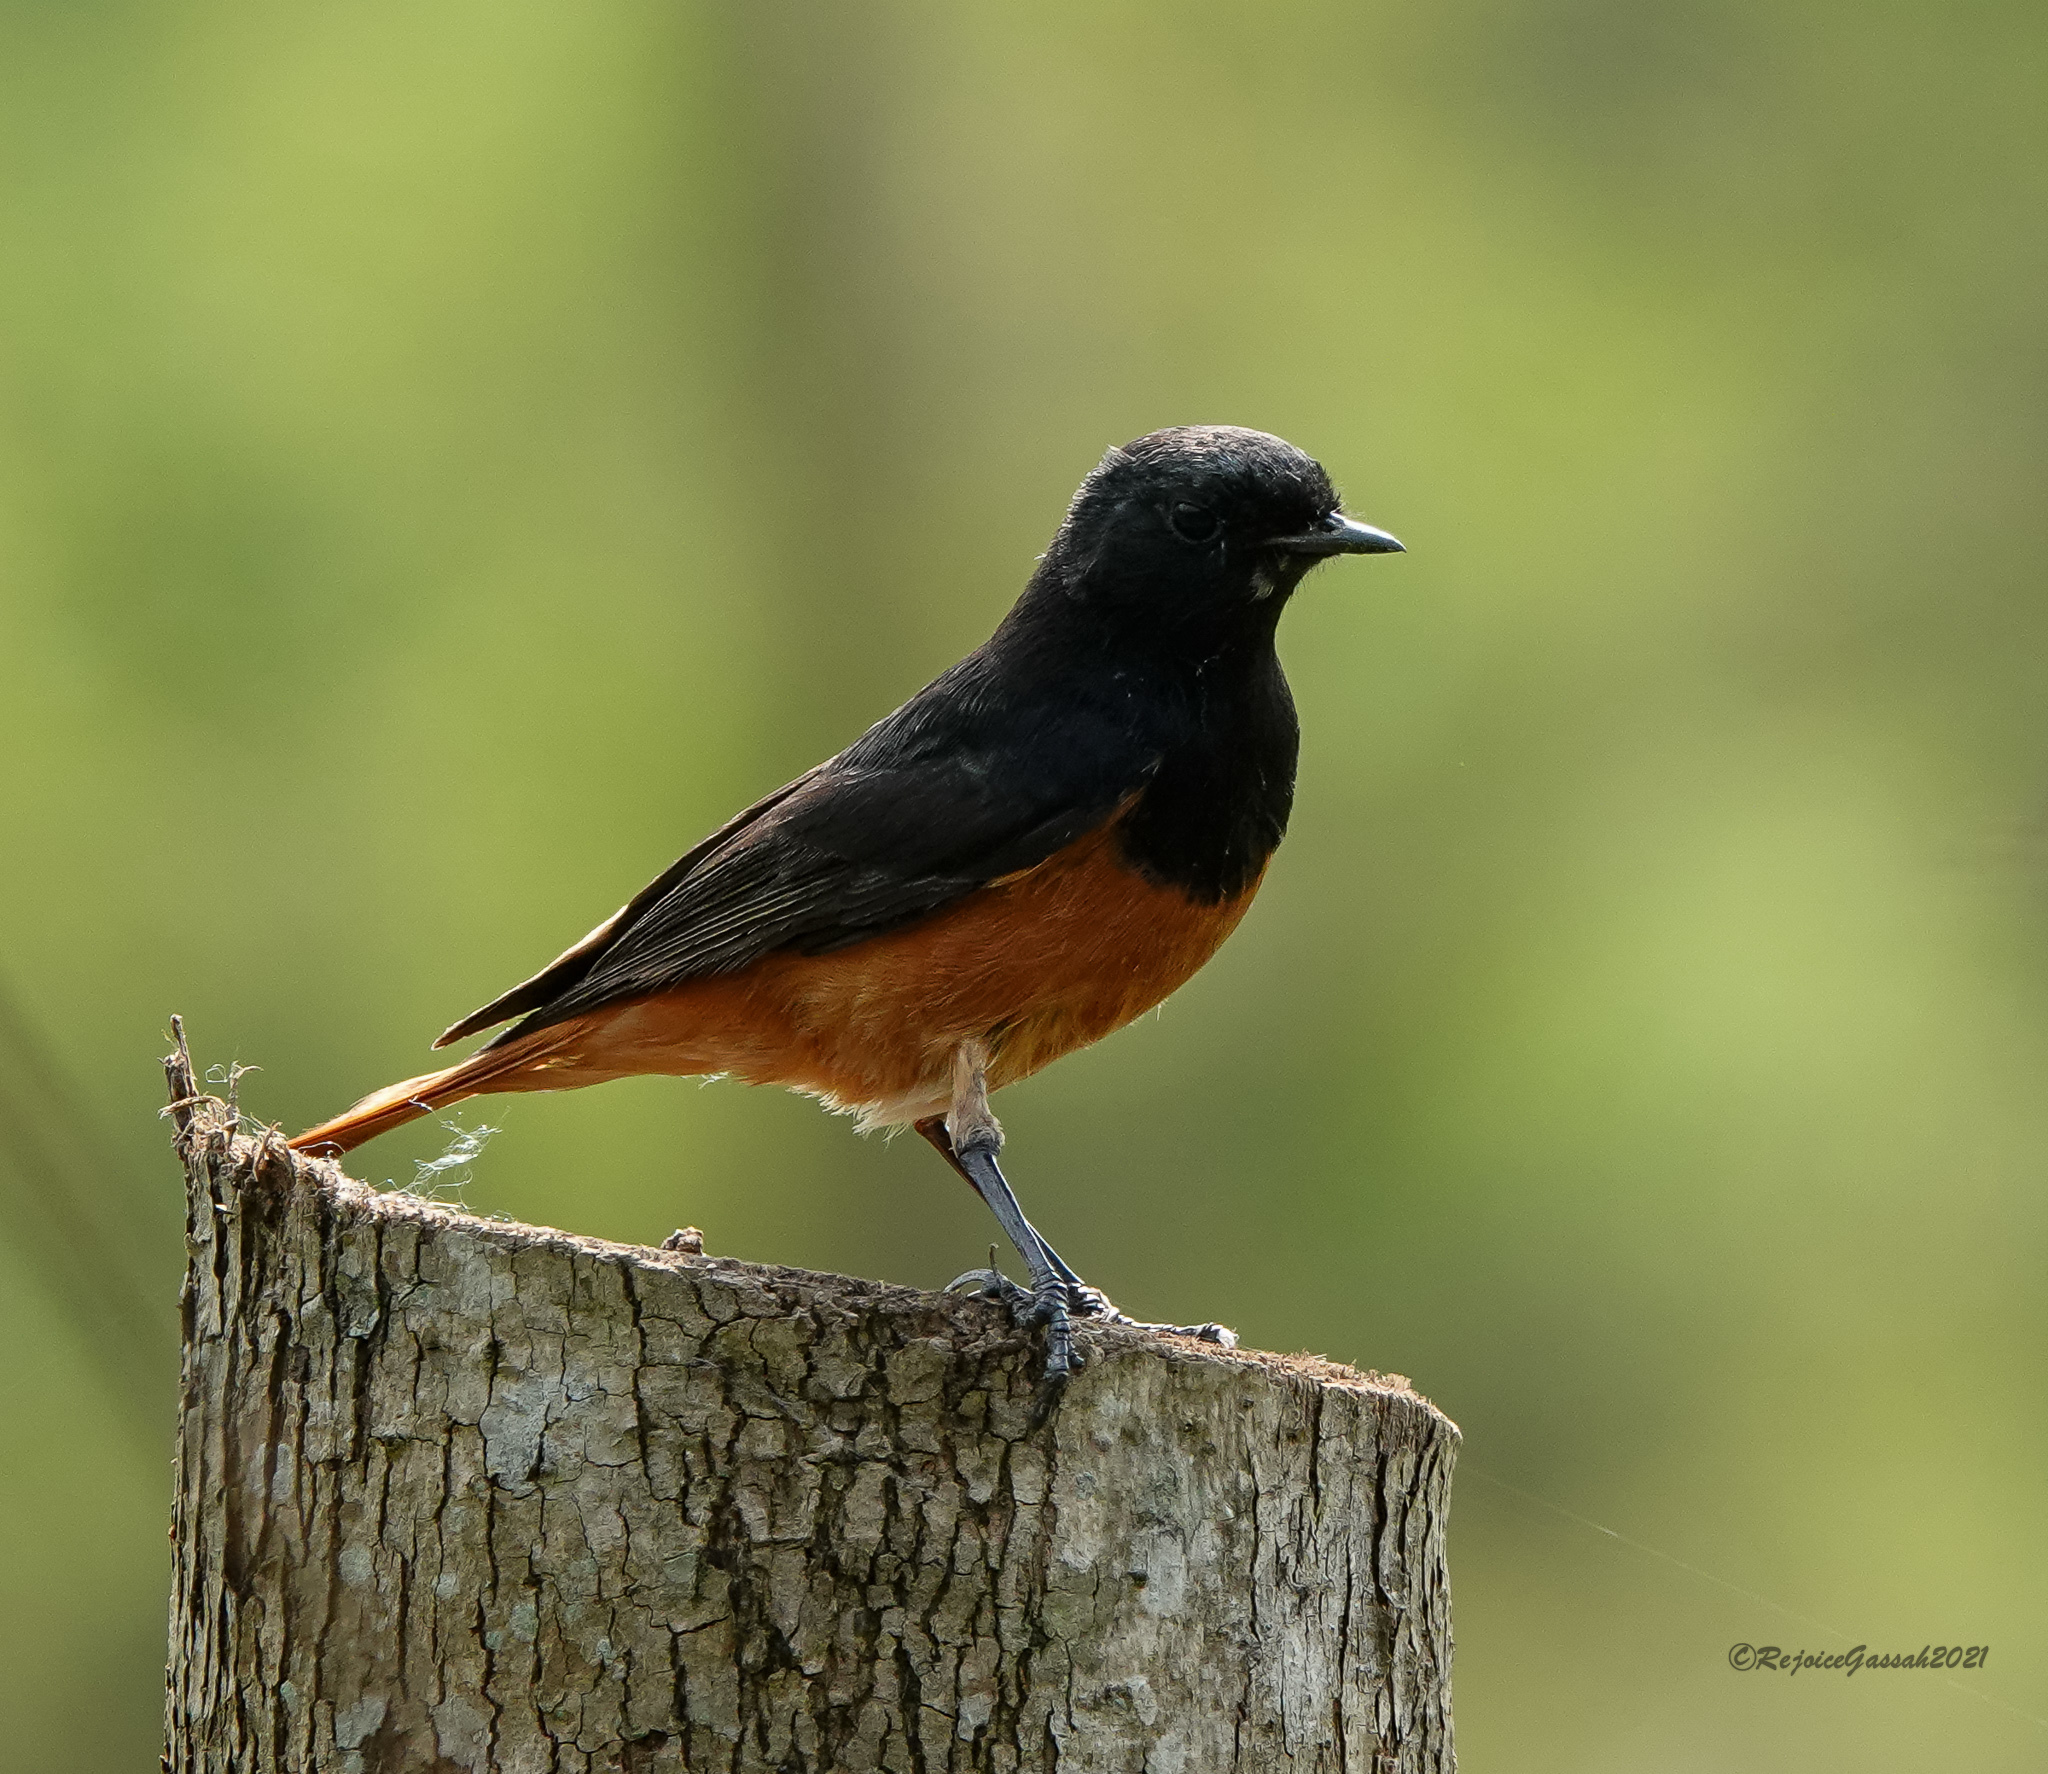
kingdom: Animalia
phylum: Chordata
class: Aves
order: Passeriformes
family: Muscicapidae
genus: Phoenicurus
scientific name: Phoenicurus ochruros
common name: Black redstart
